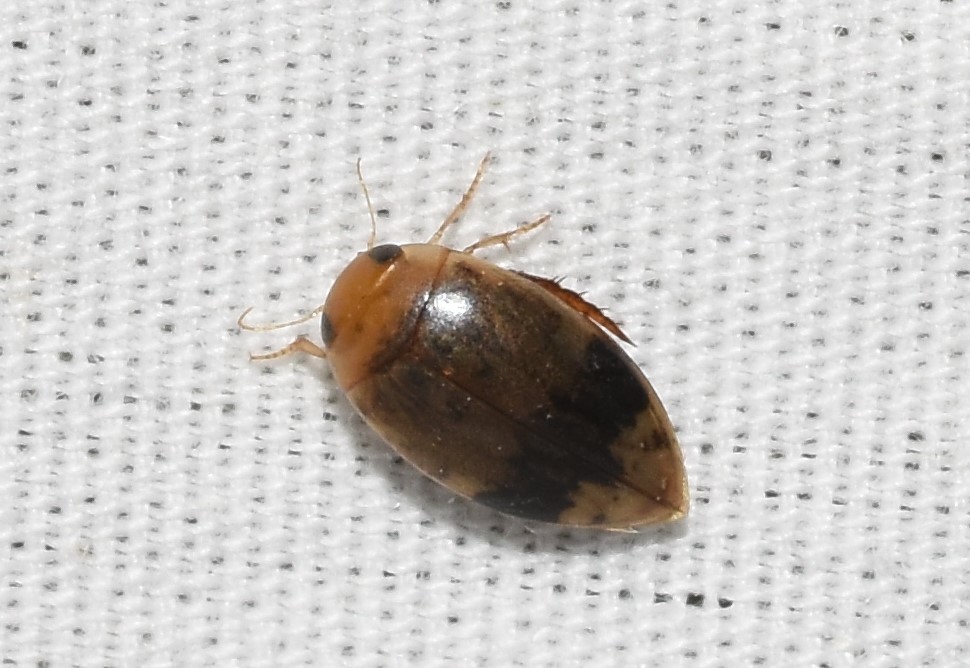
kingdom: Animalia
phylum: Arthropoda
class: Insecta
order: Coleoptera
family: Dytiscidae
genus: Laccophilus
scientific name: Laccophilus fasciatus
